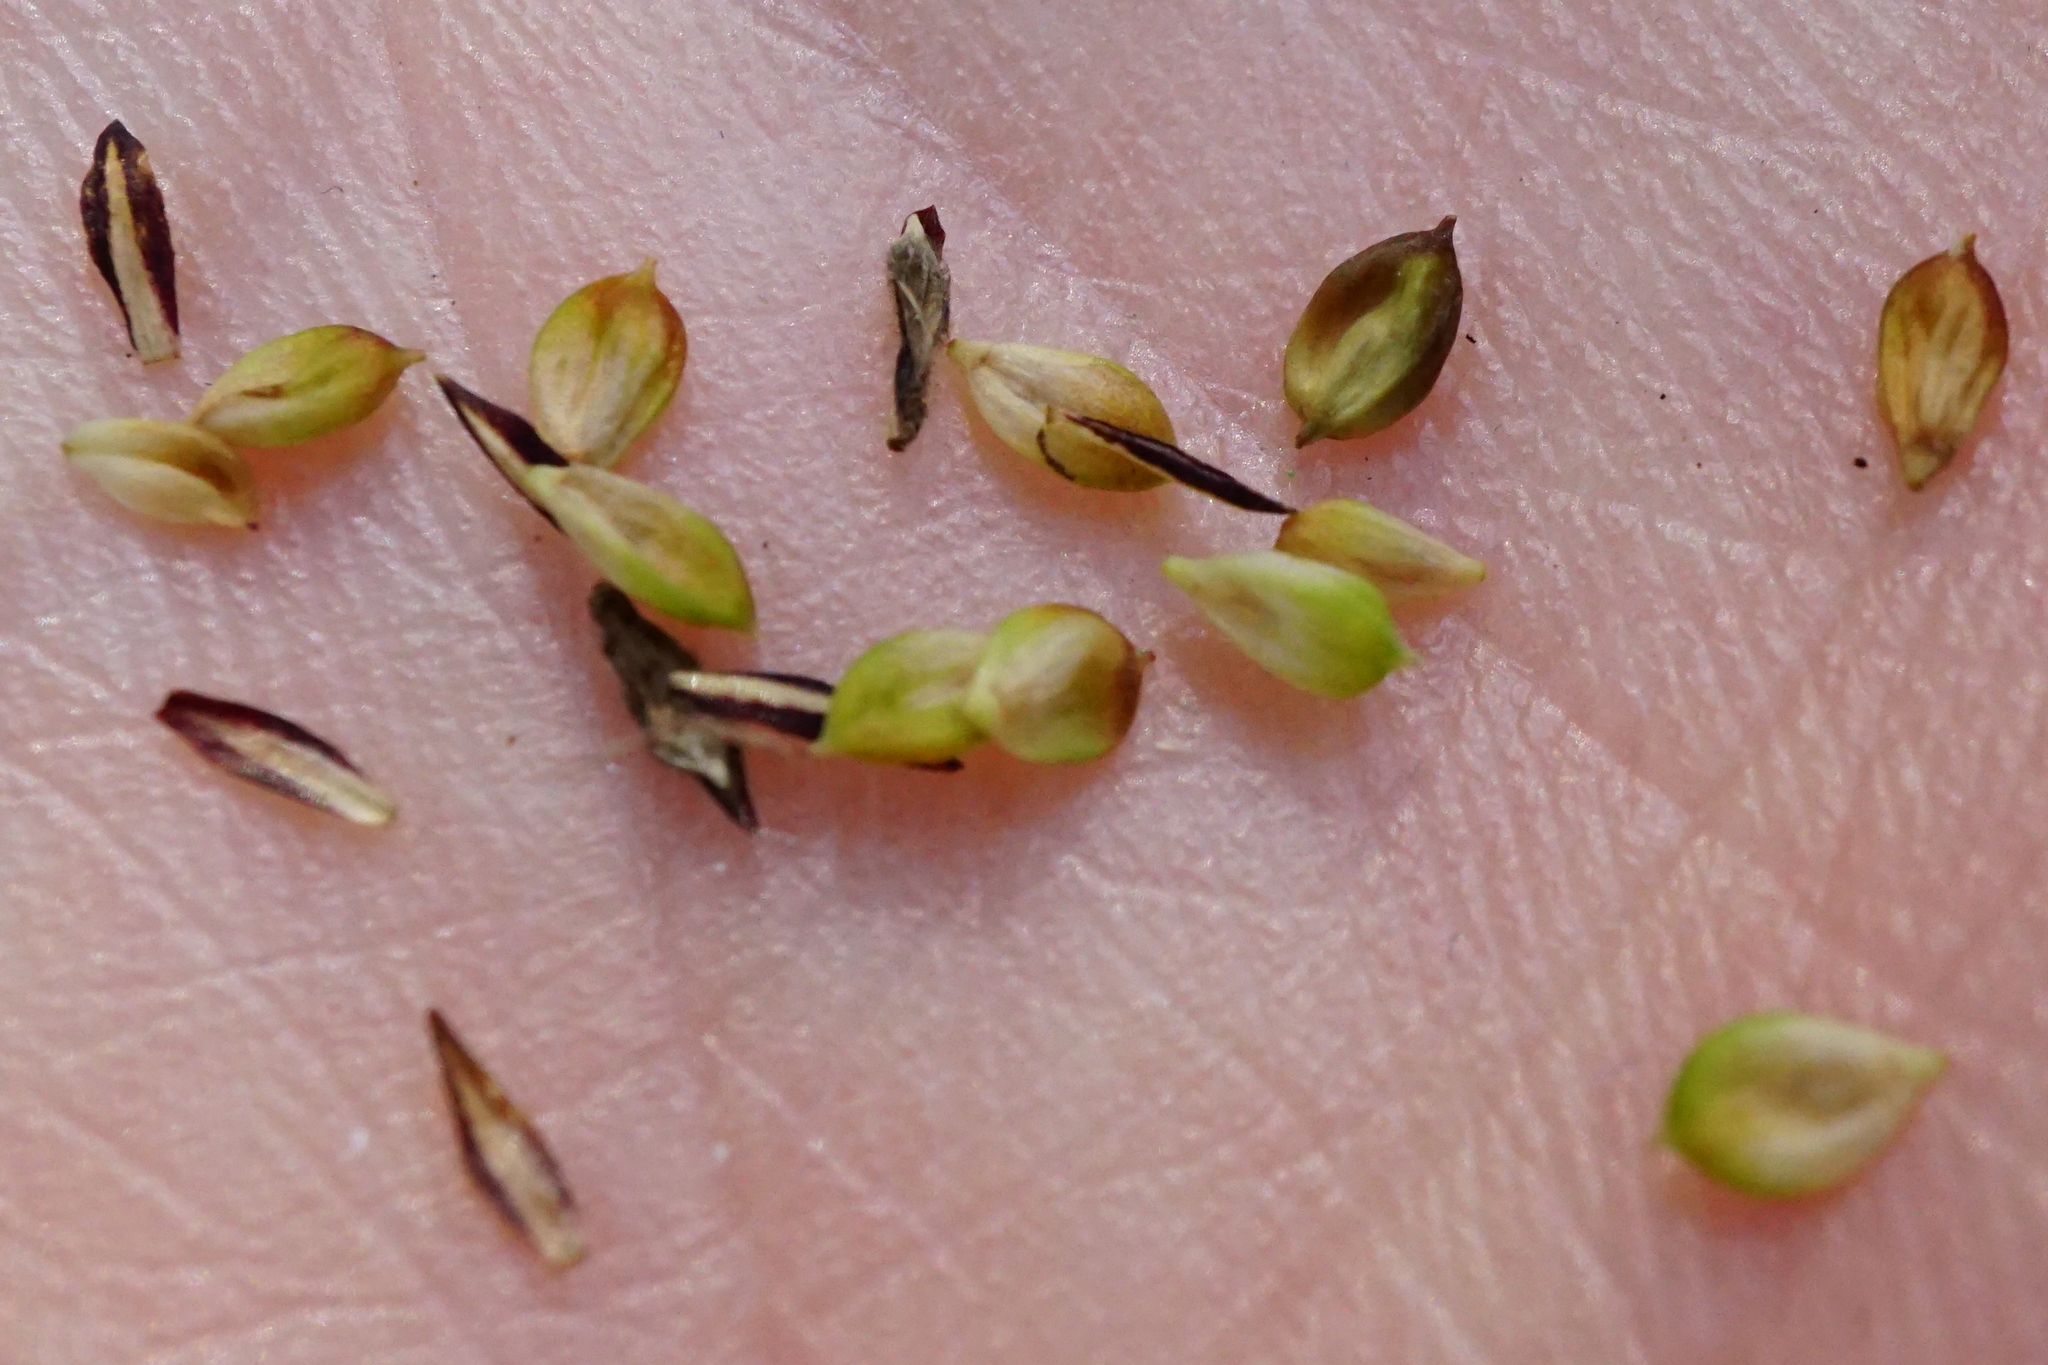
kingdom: Plantae
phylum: Tracheophyta
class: Liliopsida
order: Poales
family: Cyperaceae
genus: Carex
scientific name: Carex riparia
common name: Greater pond-sedge
